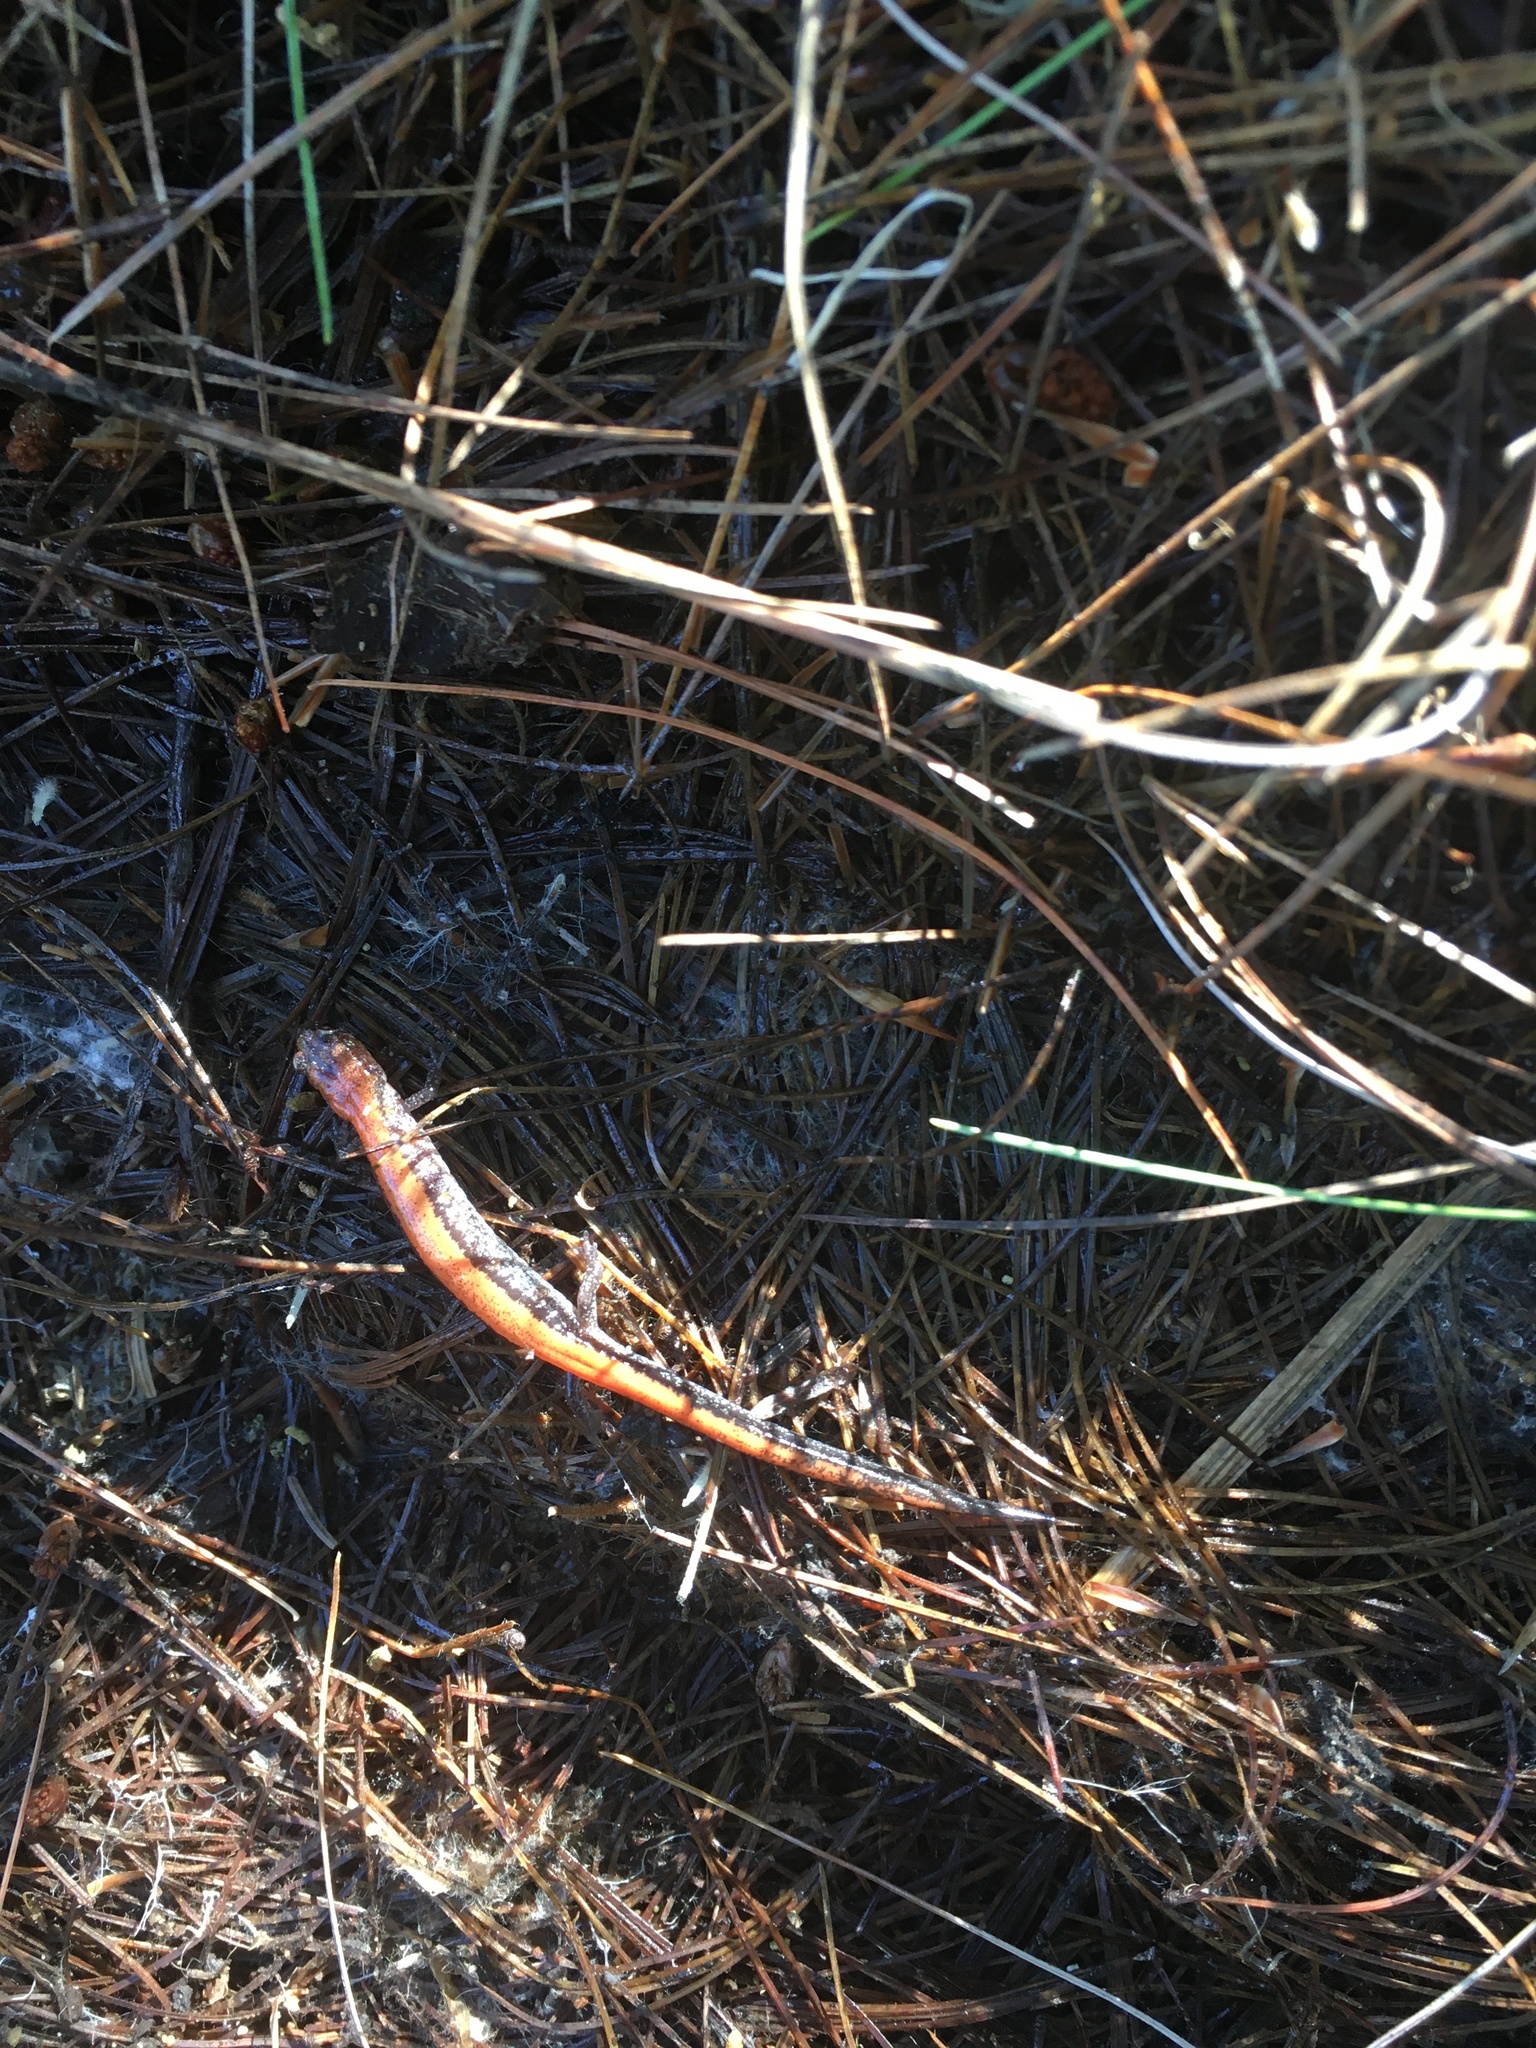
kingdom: Animalia
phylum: Chordata
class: Amphibia
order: Caudata
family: Plethodontidae
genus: Plethodon
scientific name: Plethodon cinereus
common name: Redback salamander
